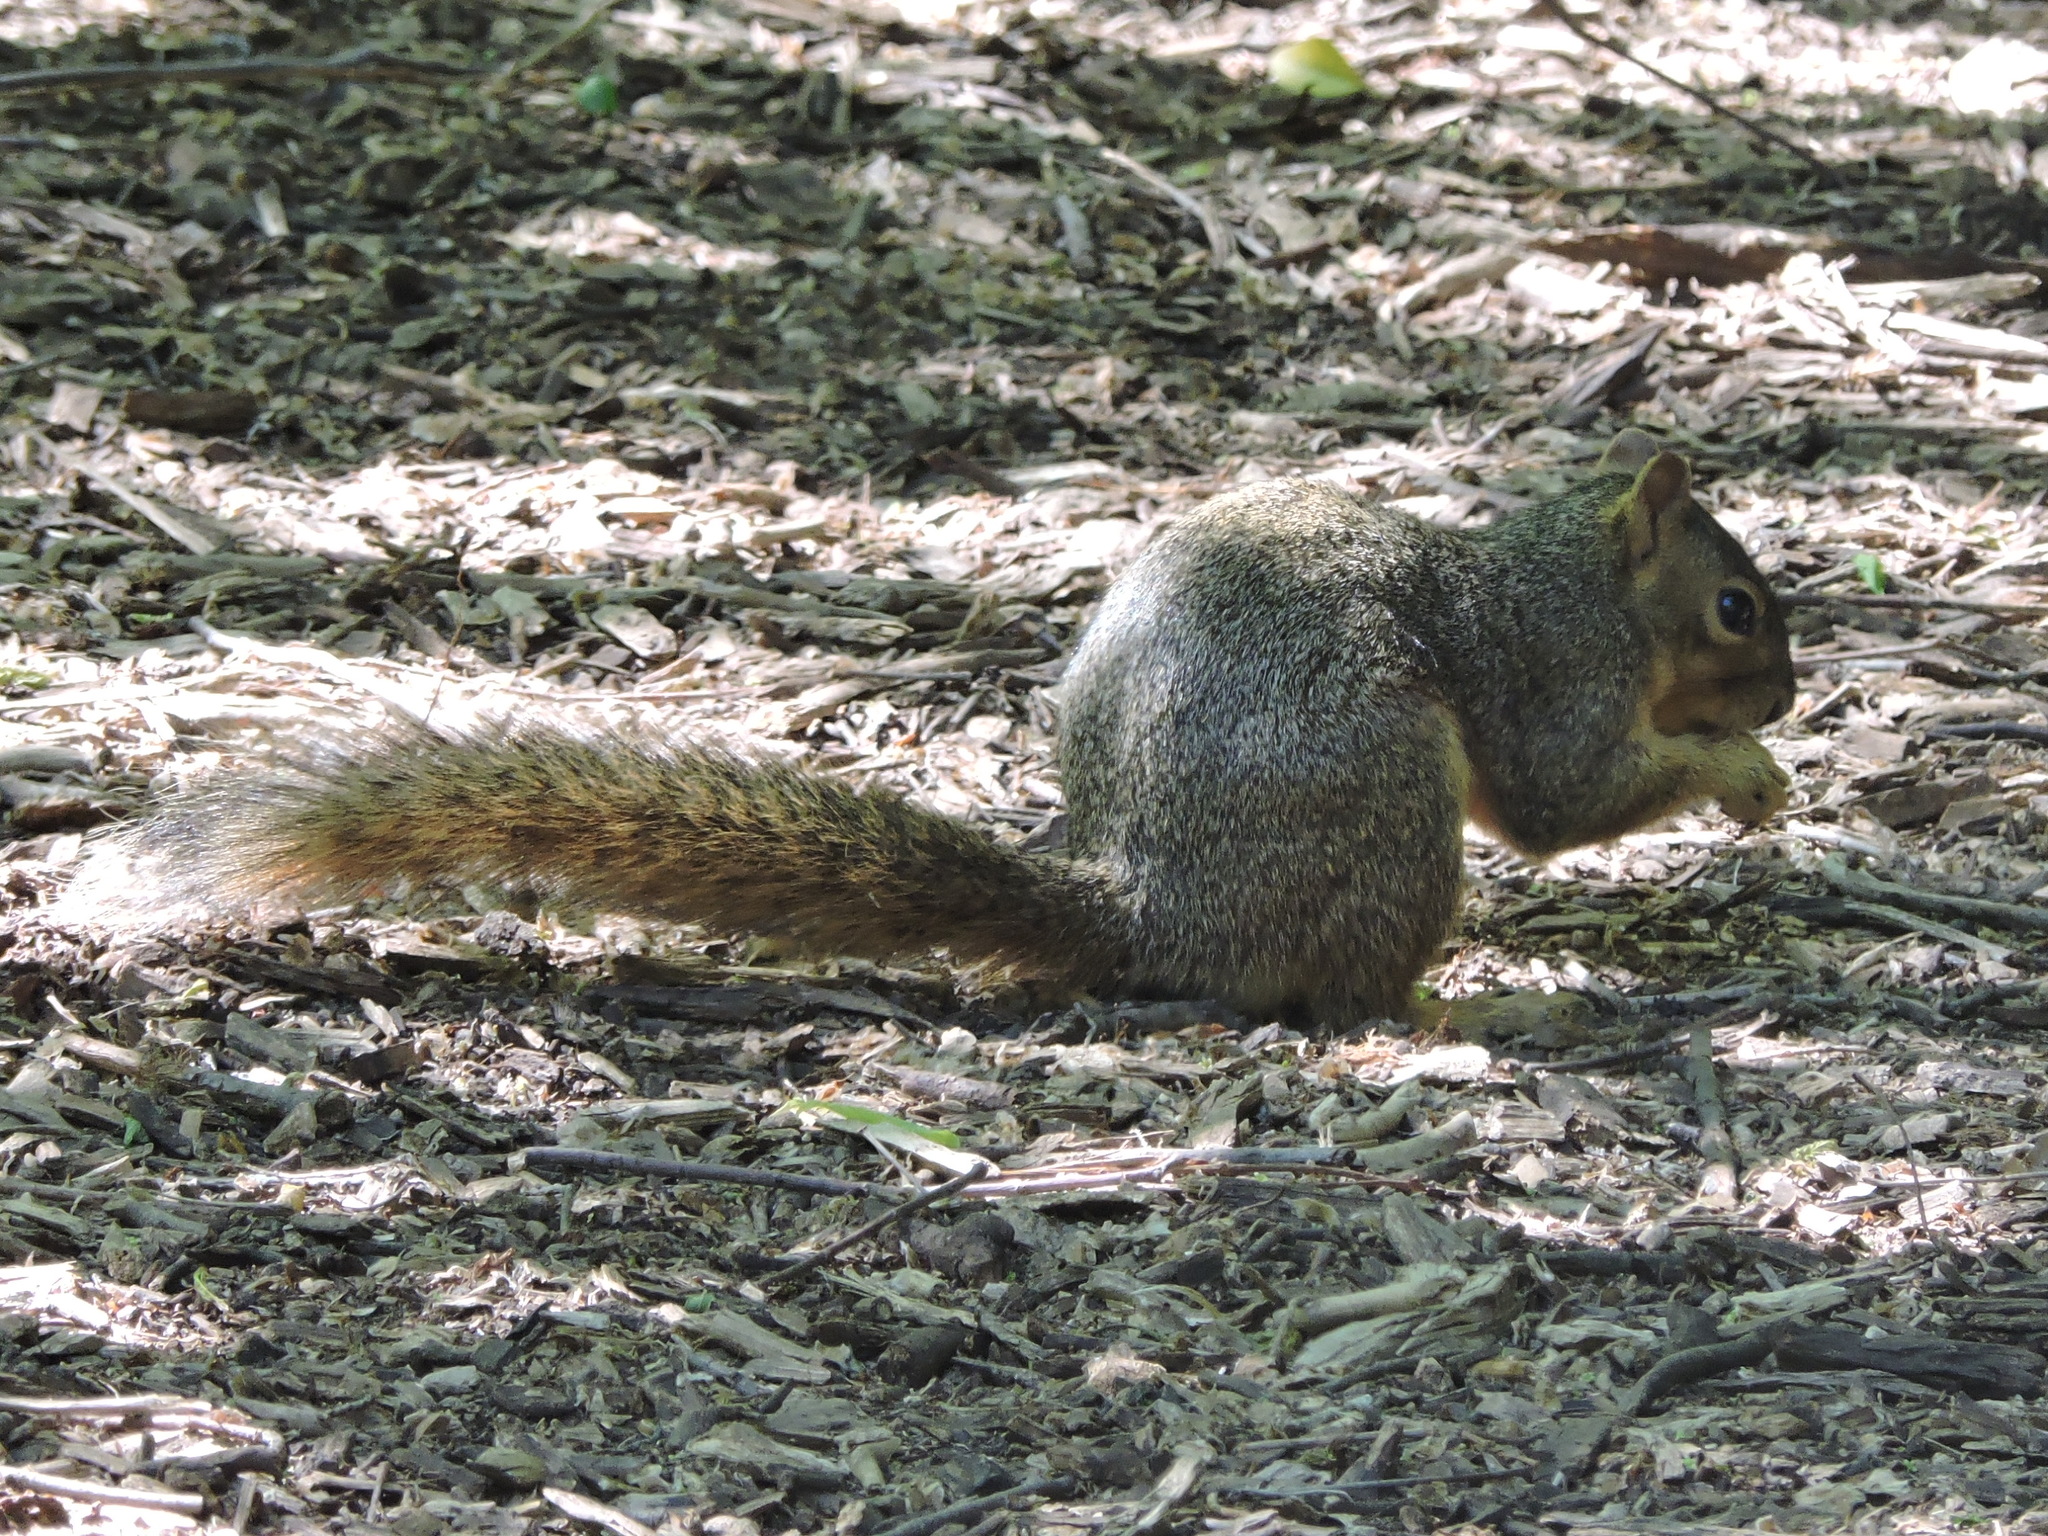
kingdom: Animalia
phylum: Chordata
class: Mammalia
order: Rodentia
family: Sciuridae
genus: Sciurus
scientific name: Sciurus niger
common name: Fox squirrel
